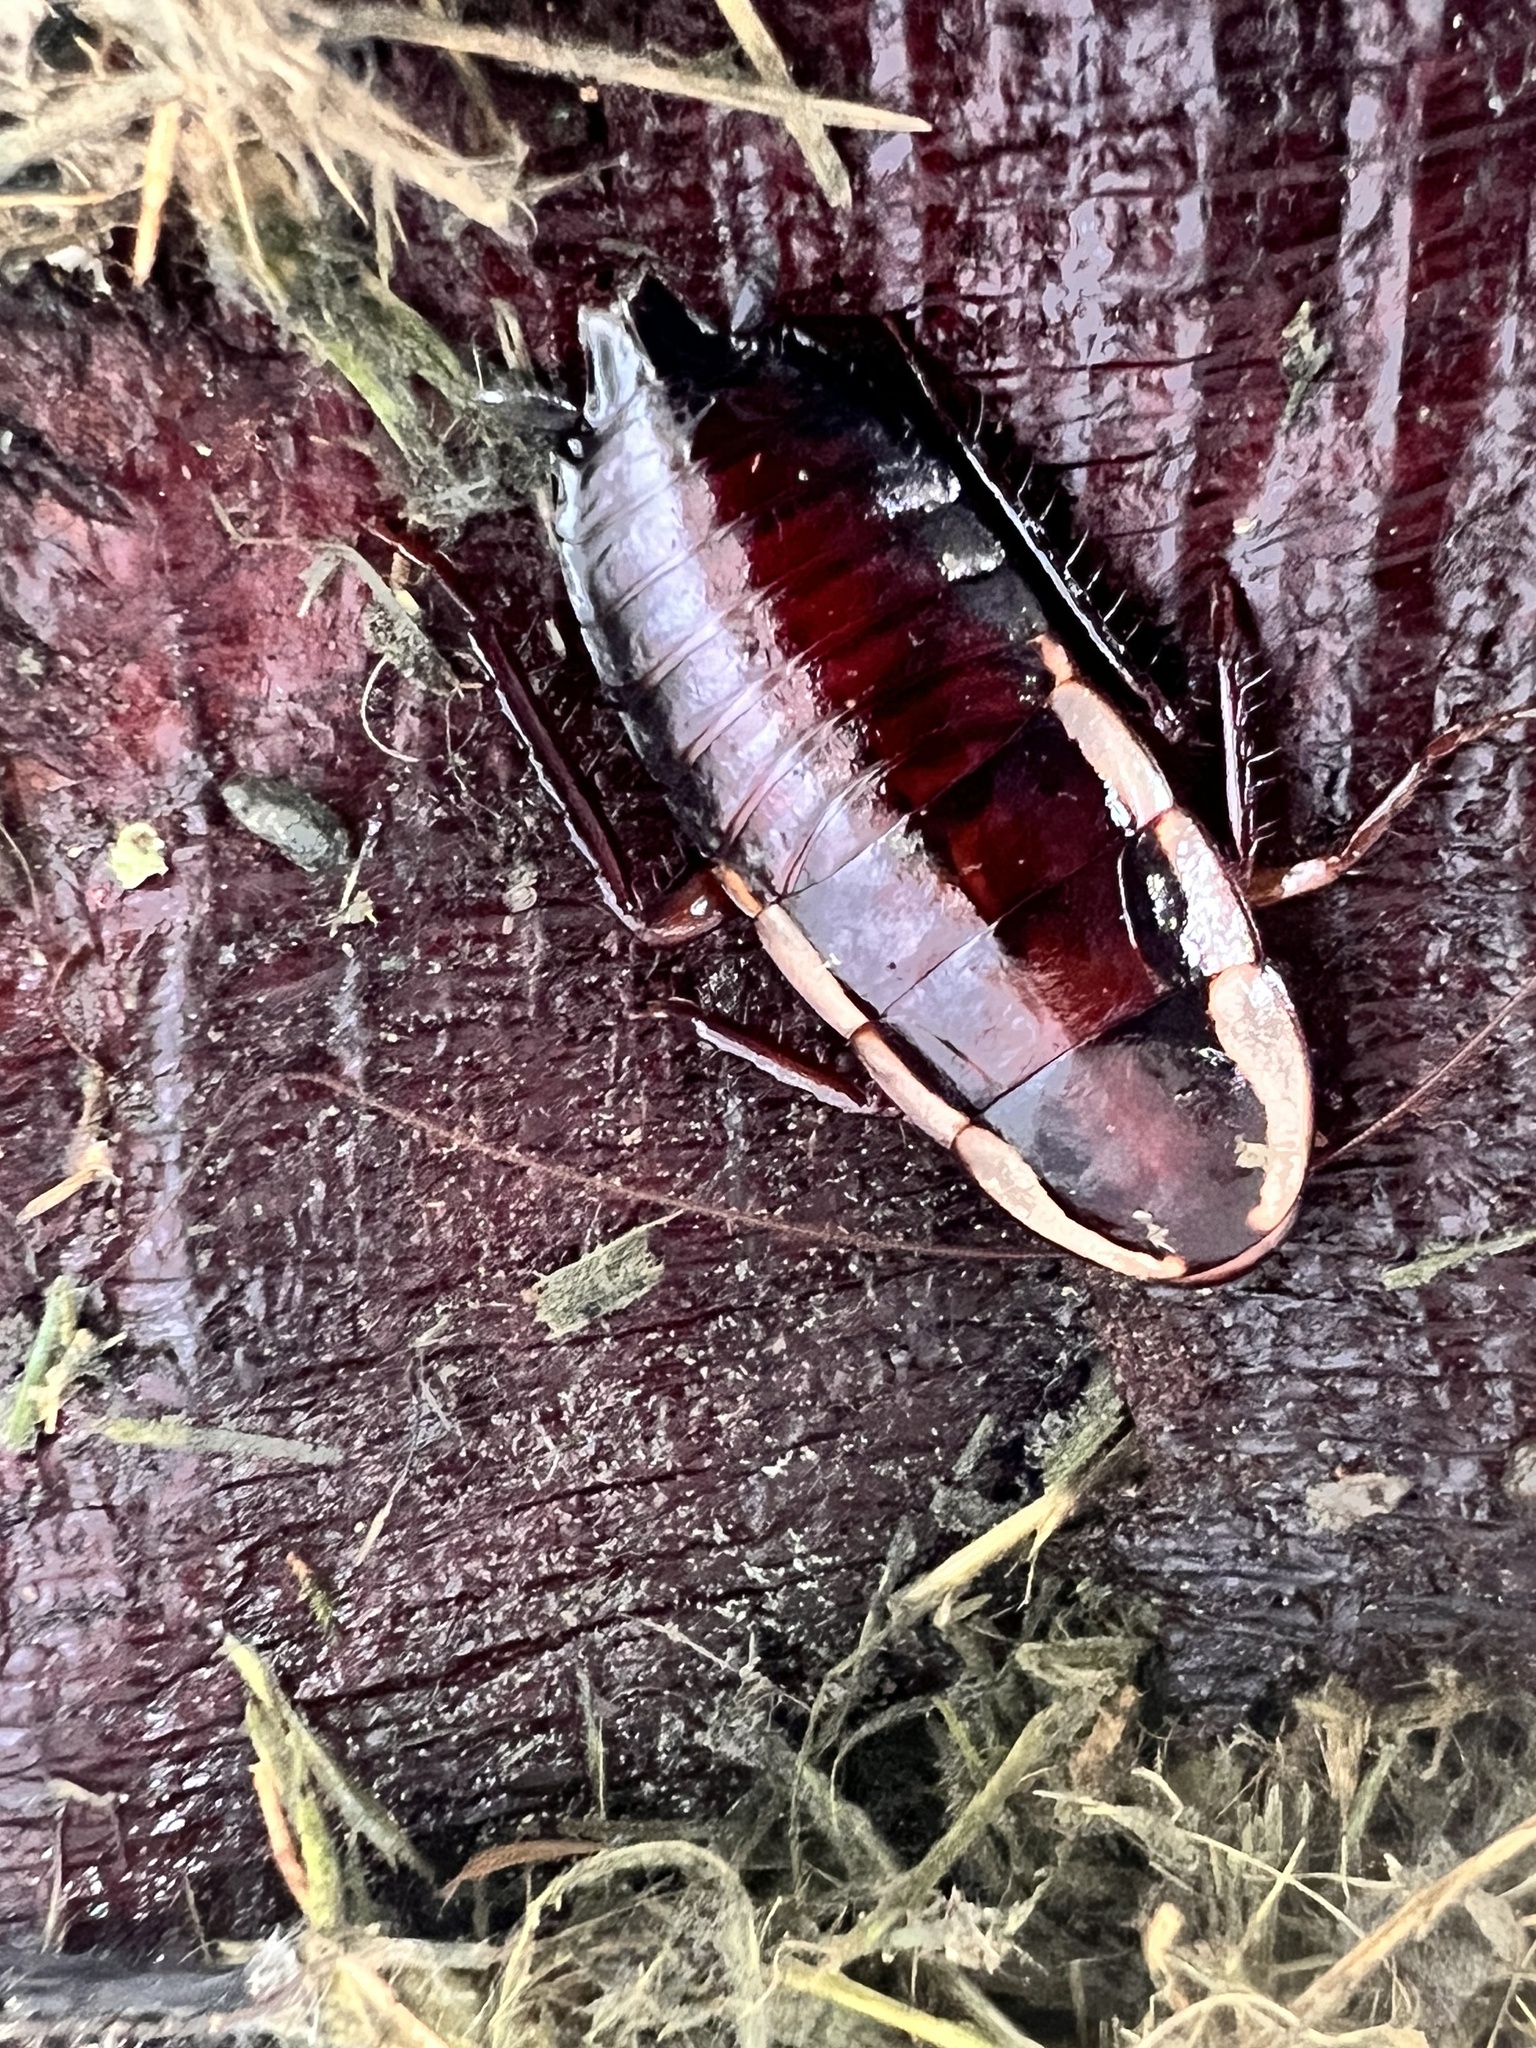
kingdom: Animalia
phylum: Arthropoda
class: Insecta
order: Blattodea
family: Blattidae
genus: Drymaplaneta
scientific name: Drymaplaneta semivitta
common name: Gisborne cockroach
